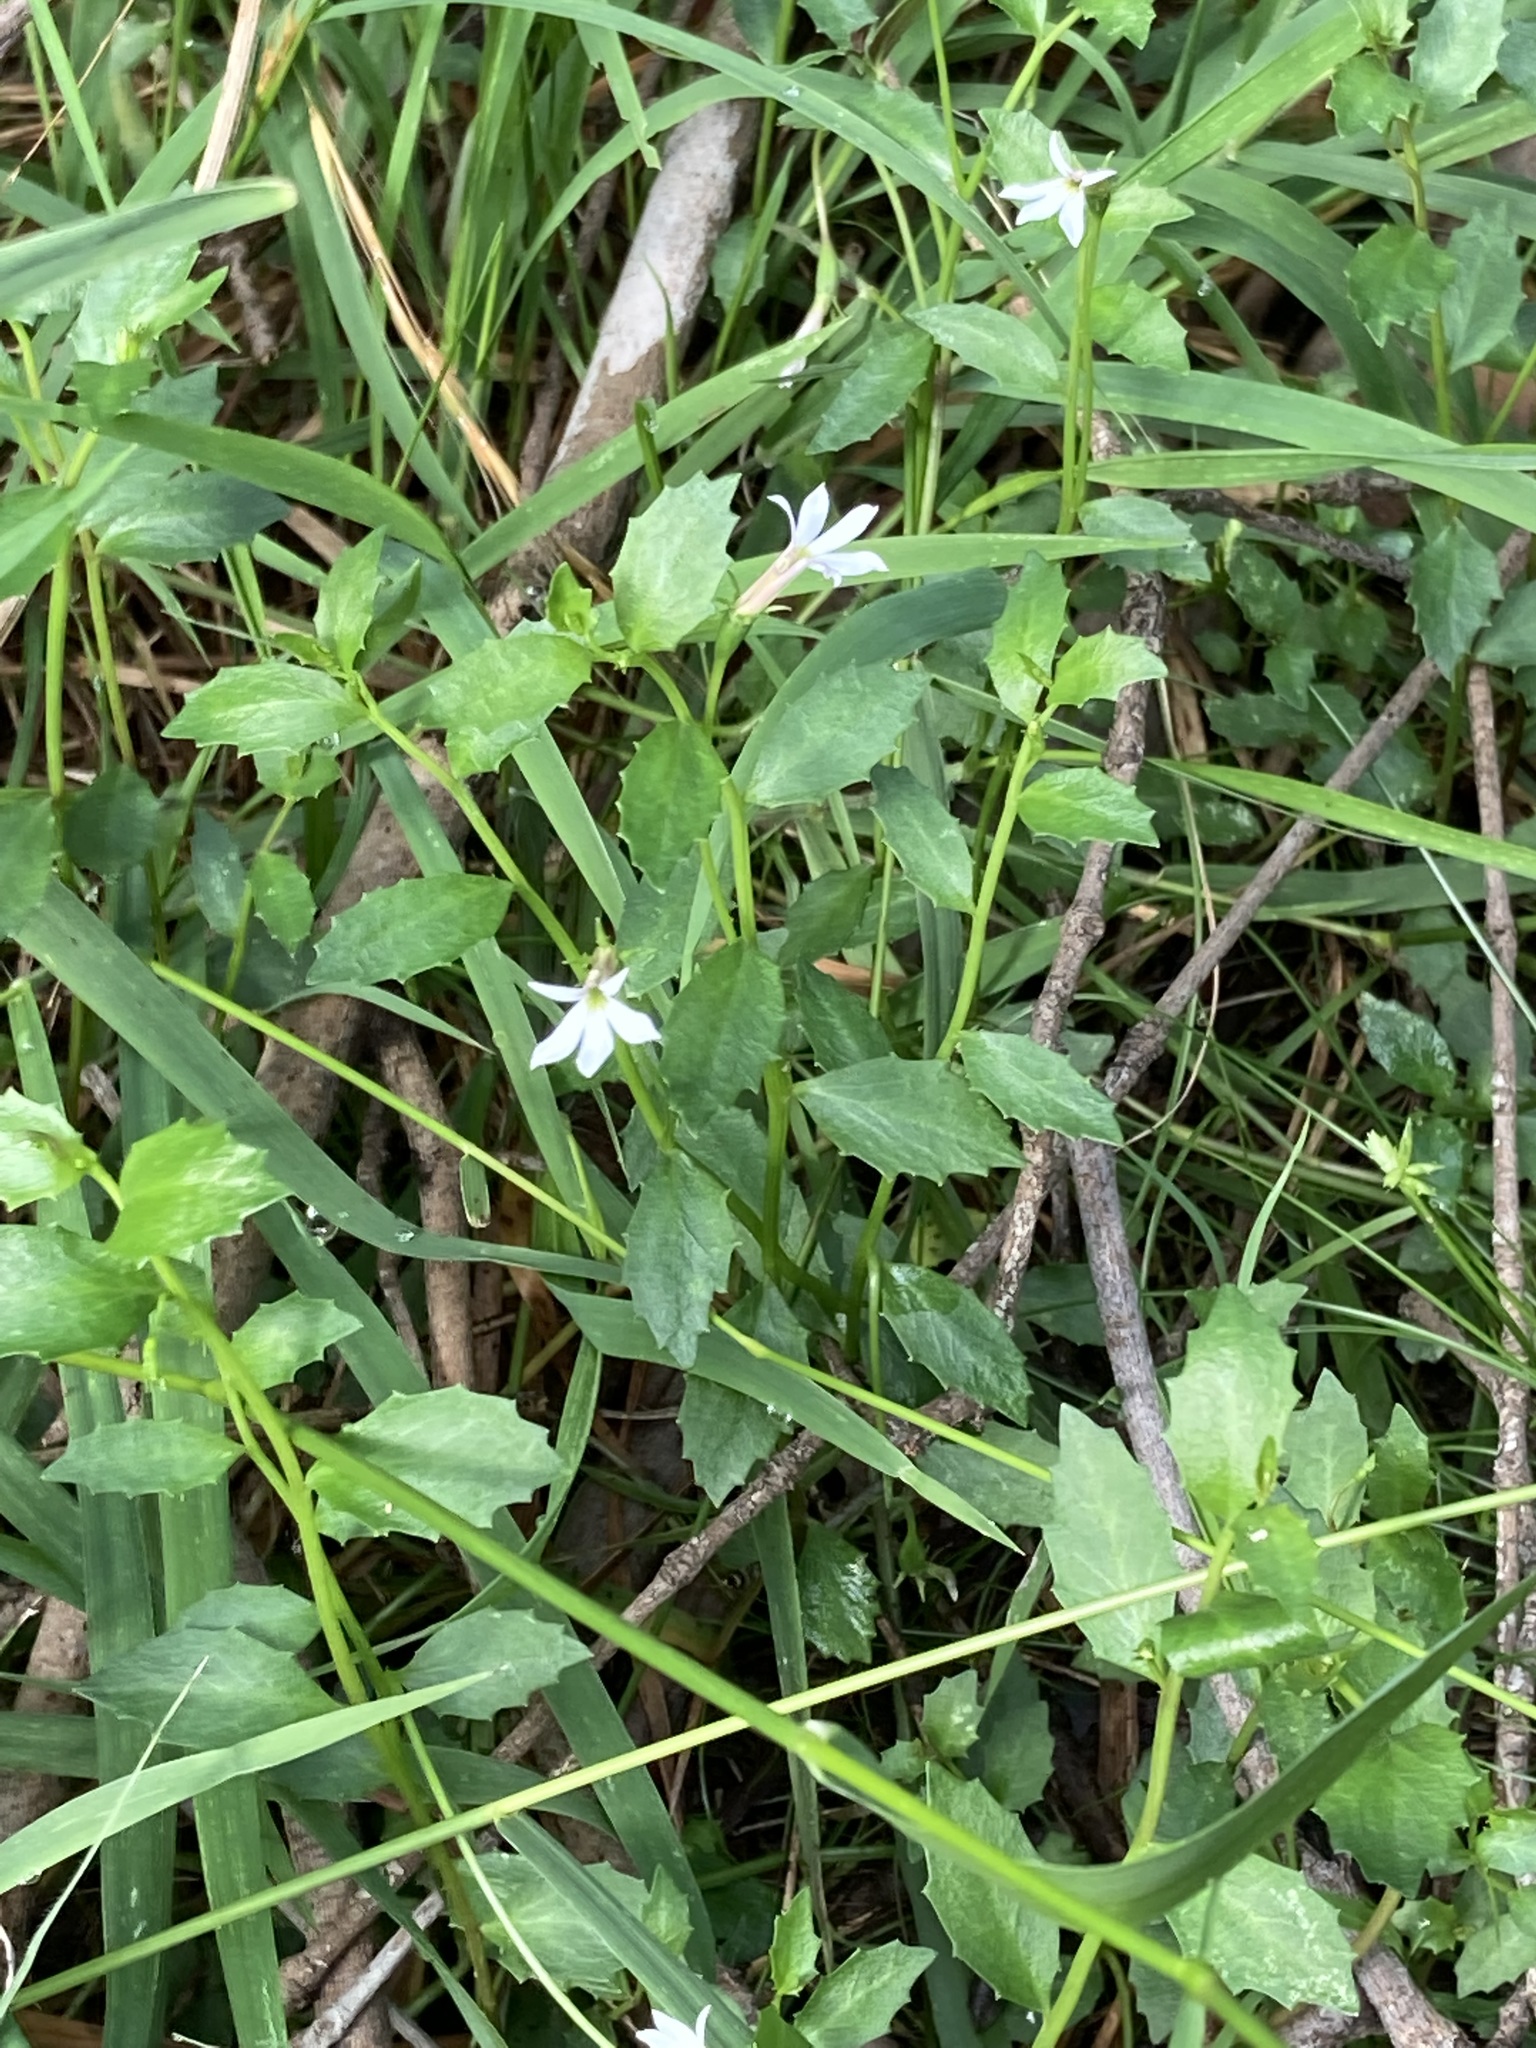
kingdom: Plantae
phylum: Tracheophyta
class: Magnoliopsida
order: Asterales
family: Campanulaceae
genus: Lobelia
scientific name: Lobelia purpurascens
